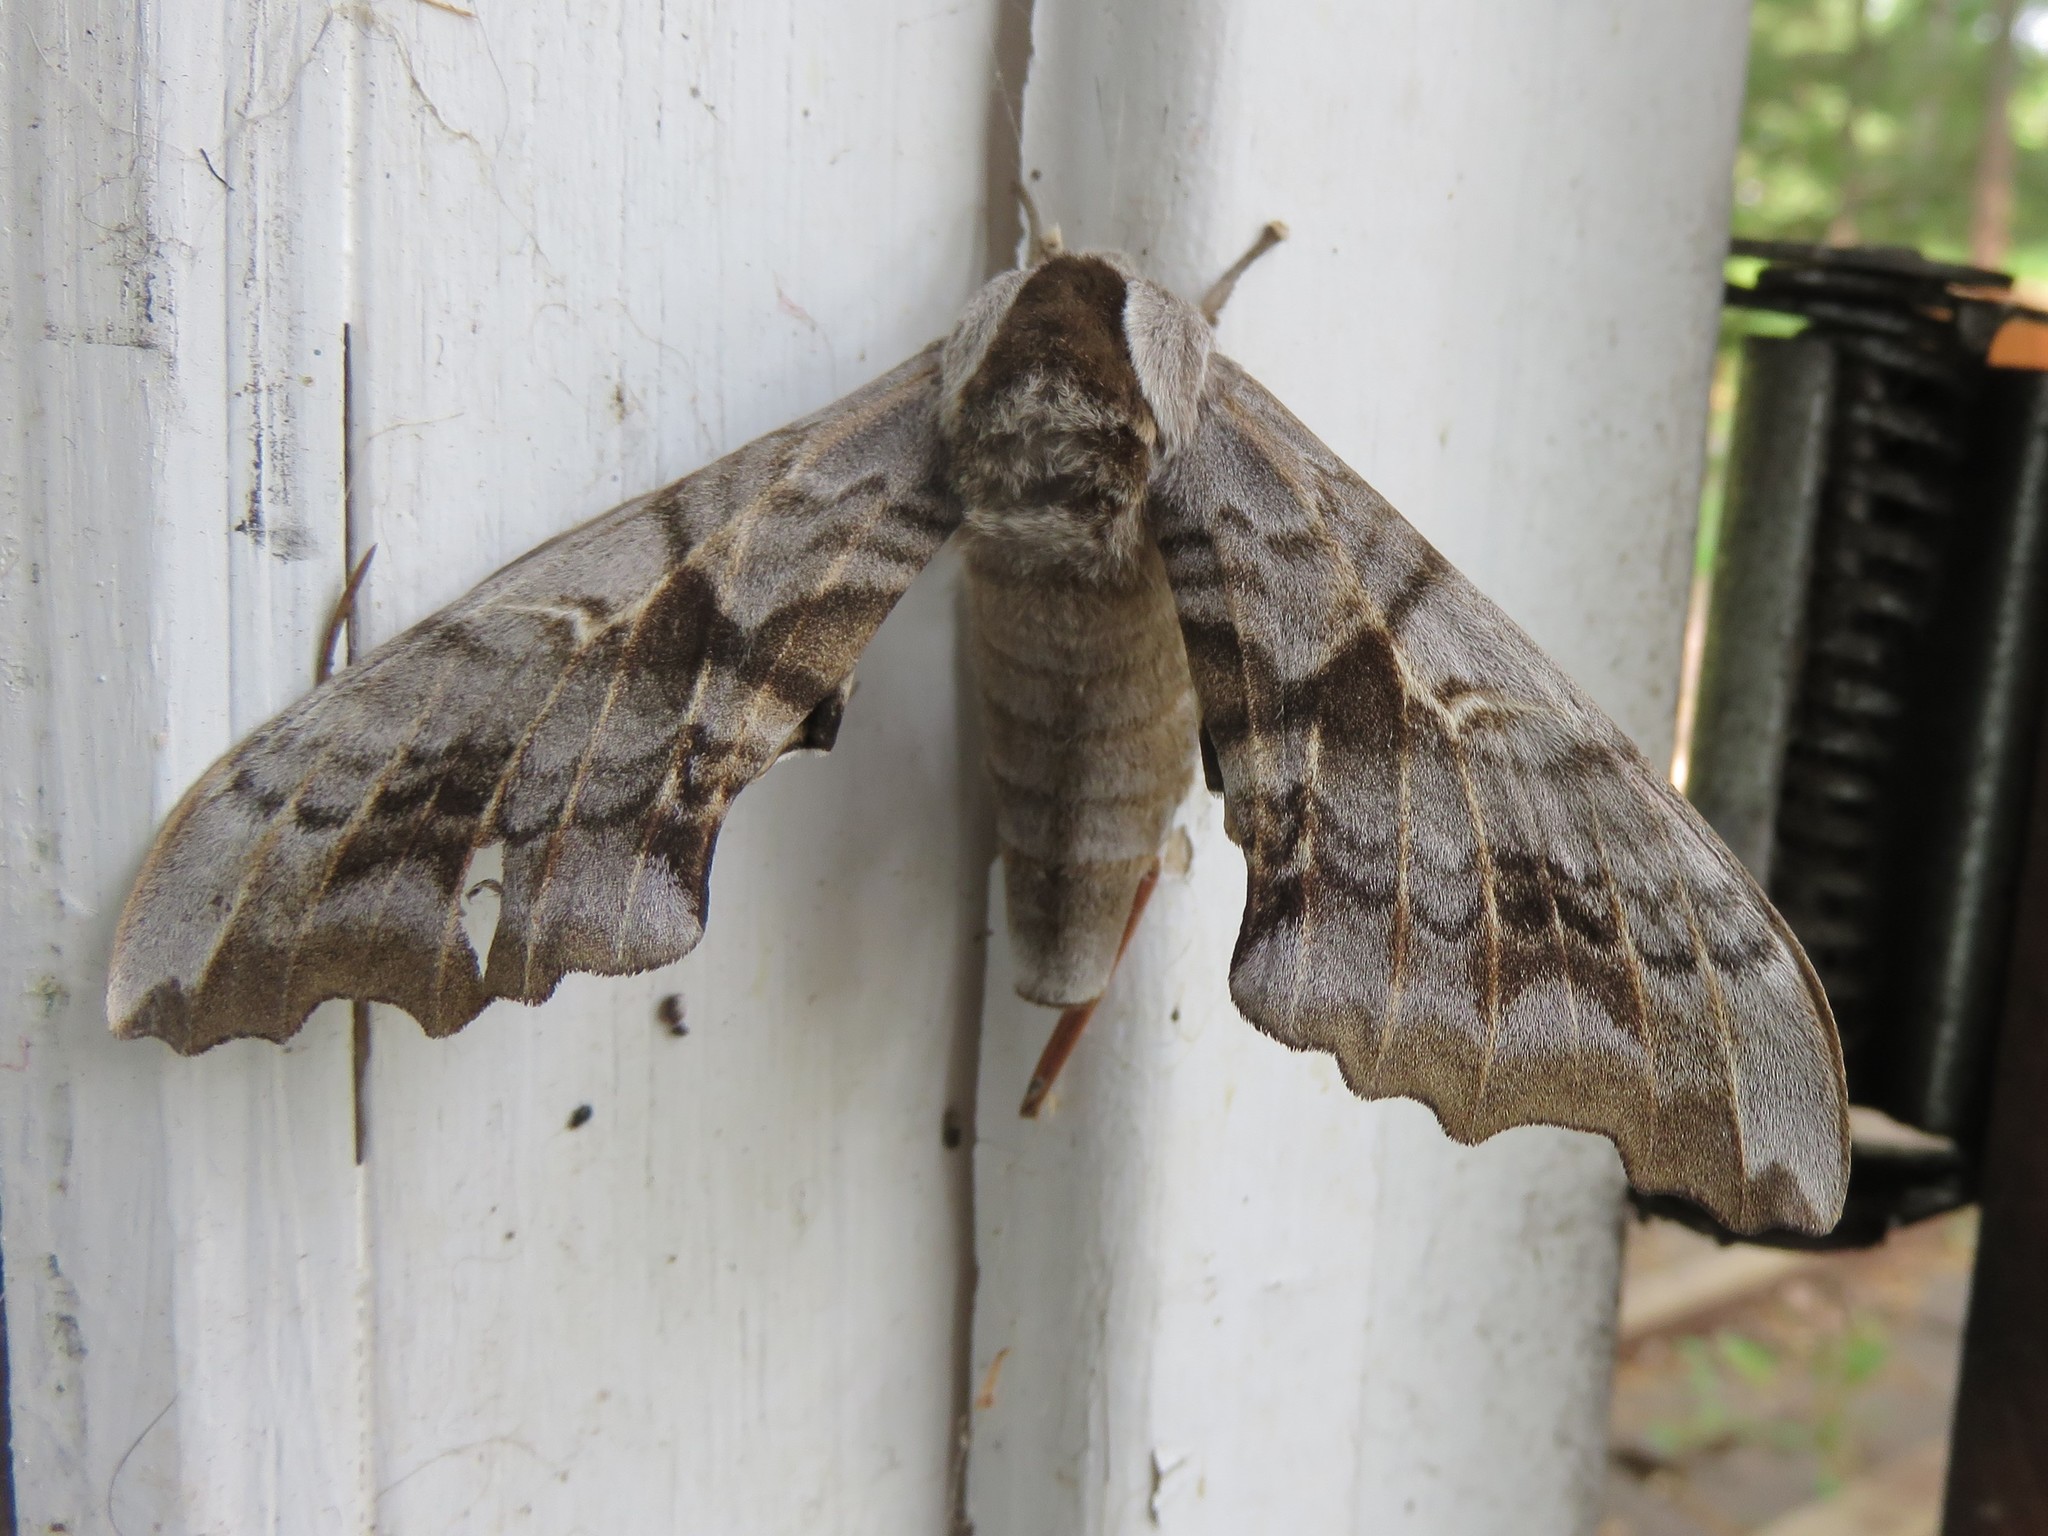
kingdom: Animalia
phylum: Arthropoda
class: Insecta
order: Lepidoptera
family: Sphingidae
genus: Smerinthus
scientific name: Smerinthus cerisyi
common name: Cerisy's sphinx moth
